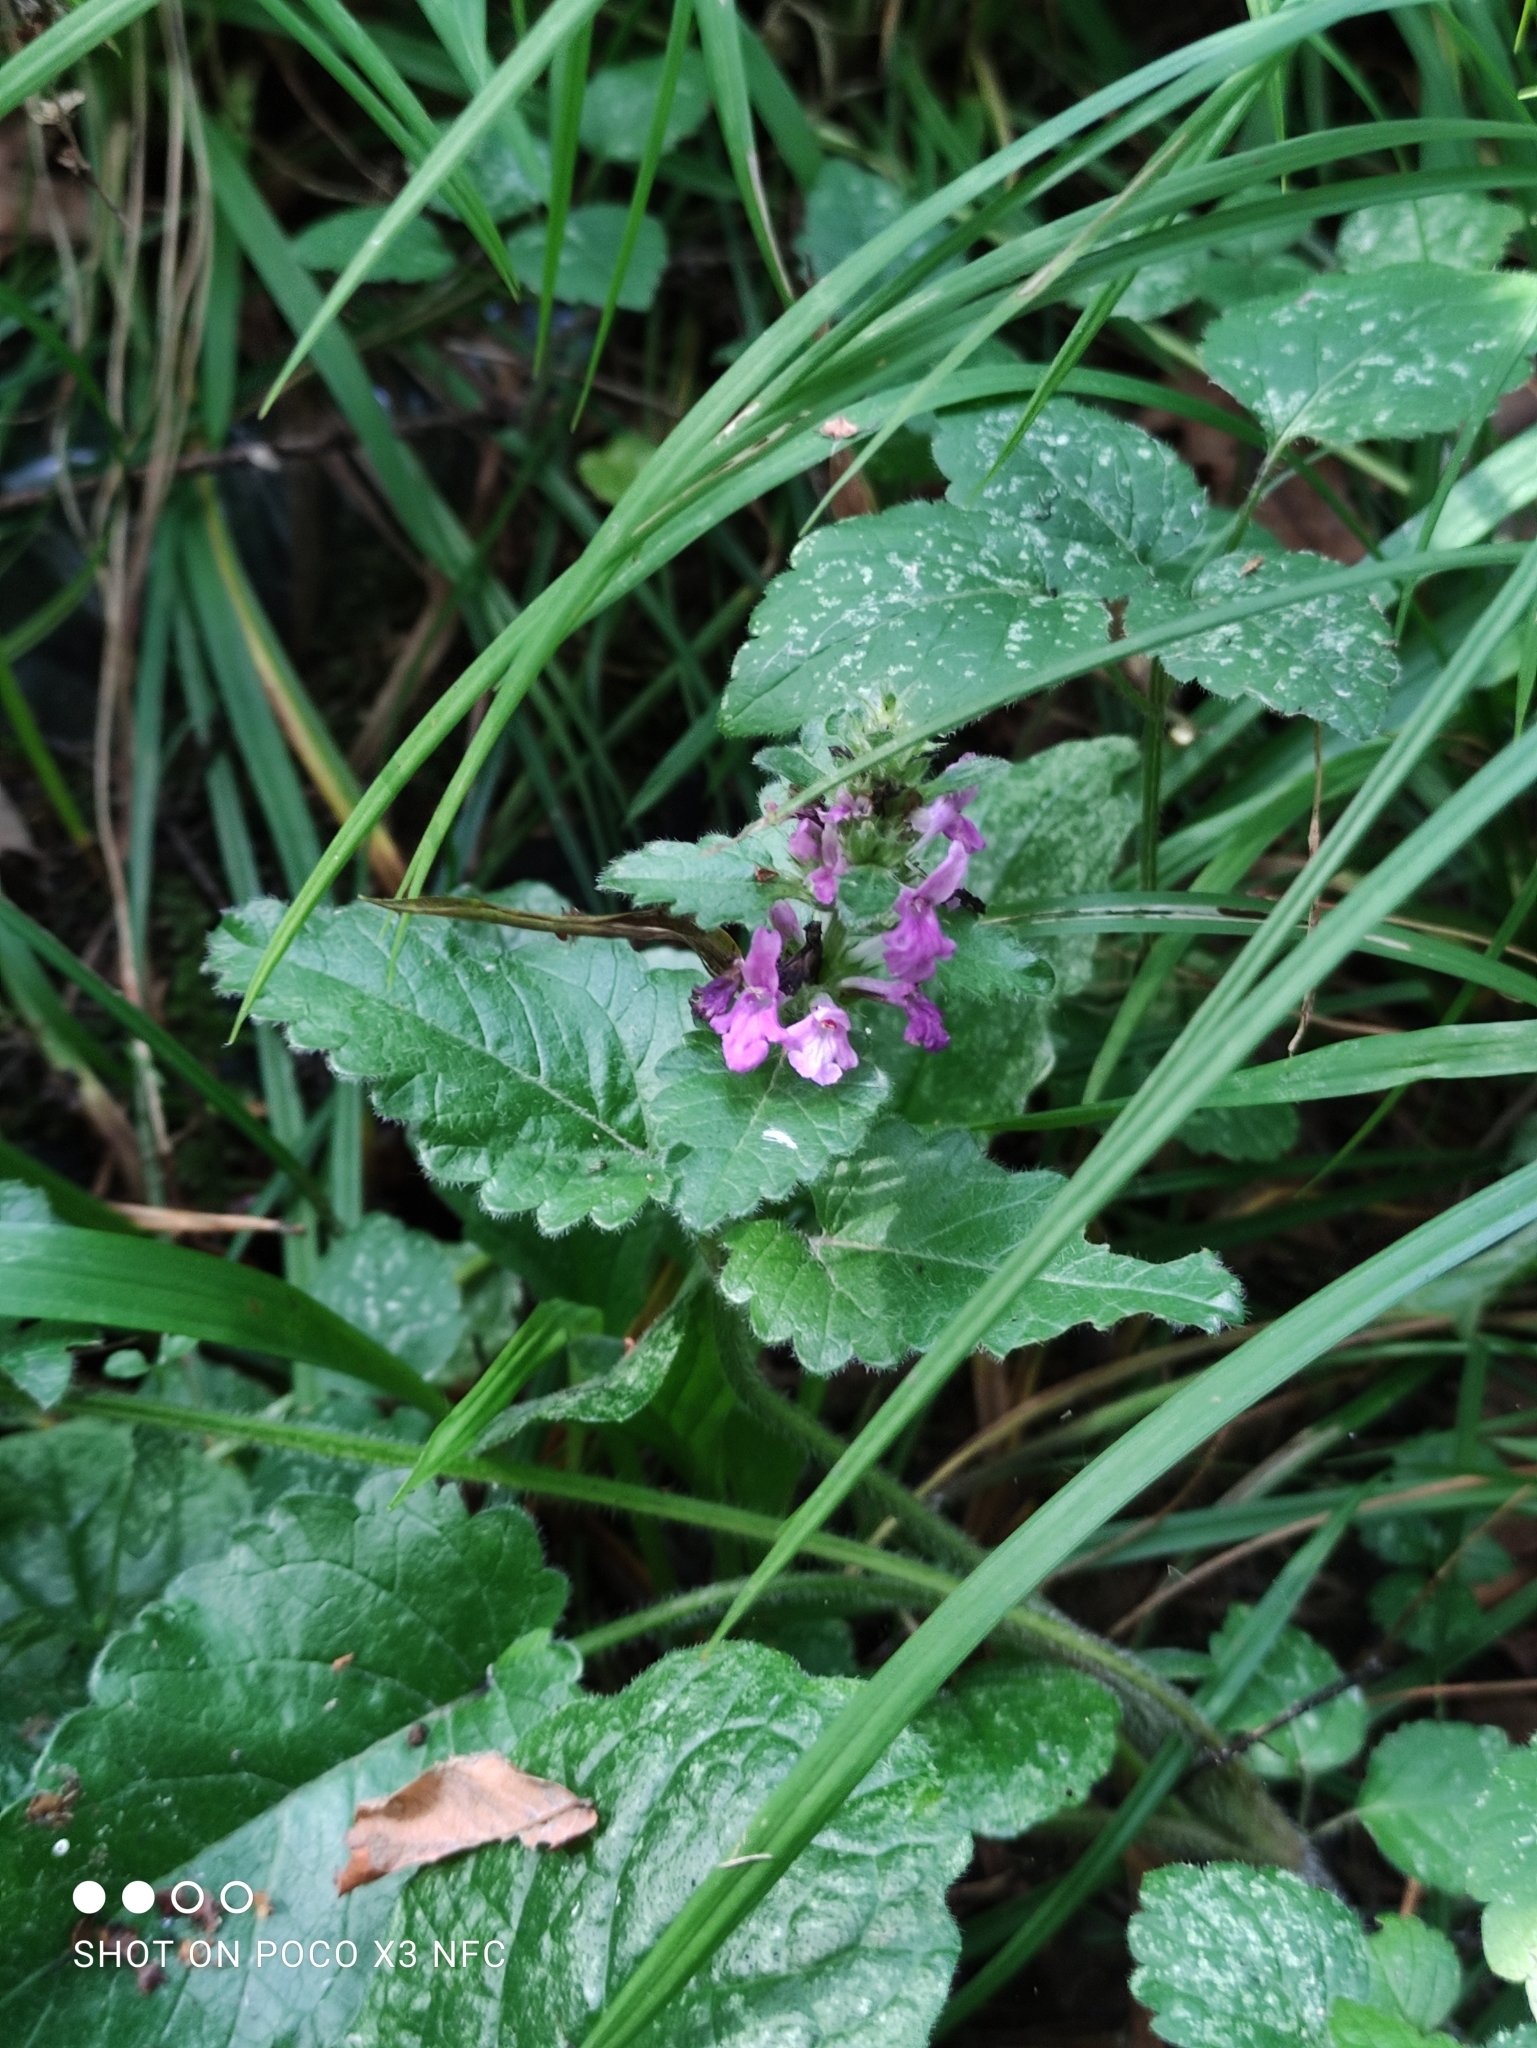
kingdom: Plantae
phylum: Tracheophyta
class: Magnoliopsida
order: Lamiales
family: Lamiaceae
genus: Betonica
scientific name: Betonica officinalis
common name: Bishop's-wort
